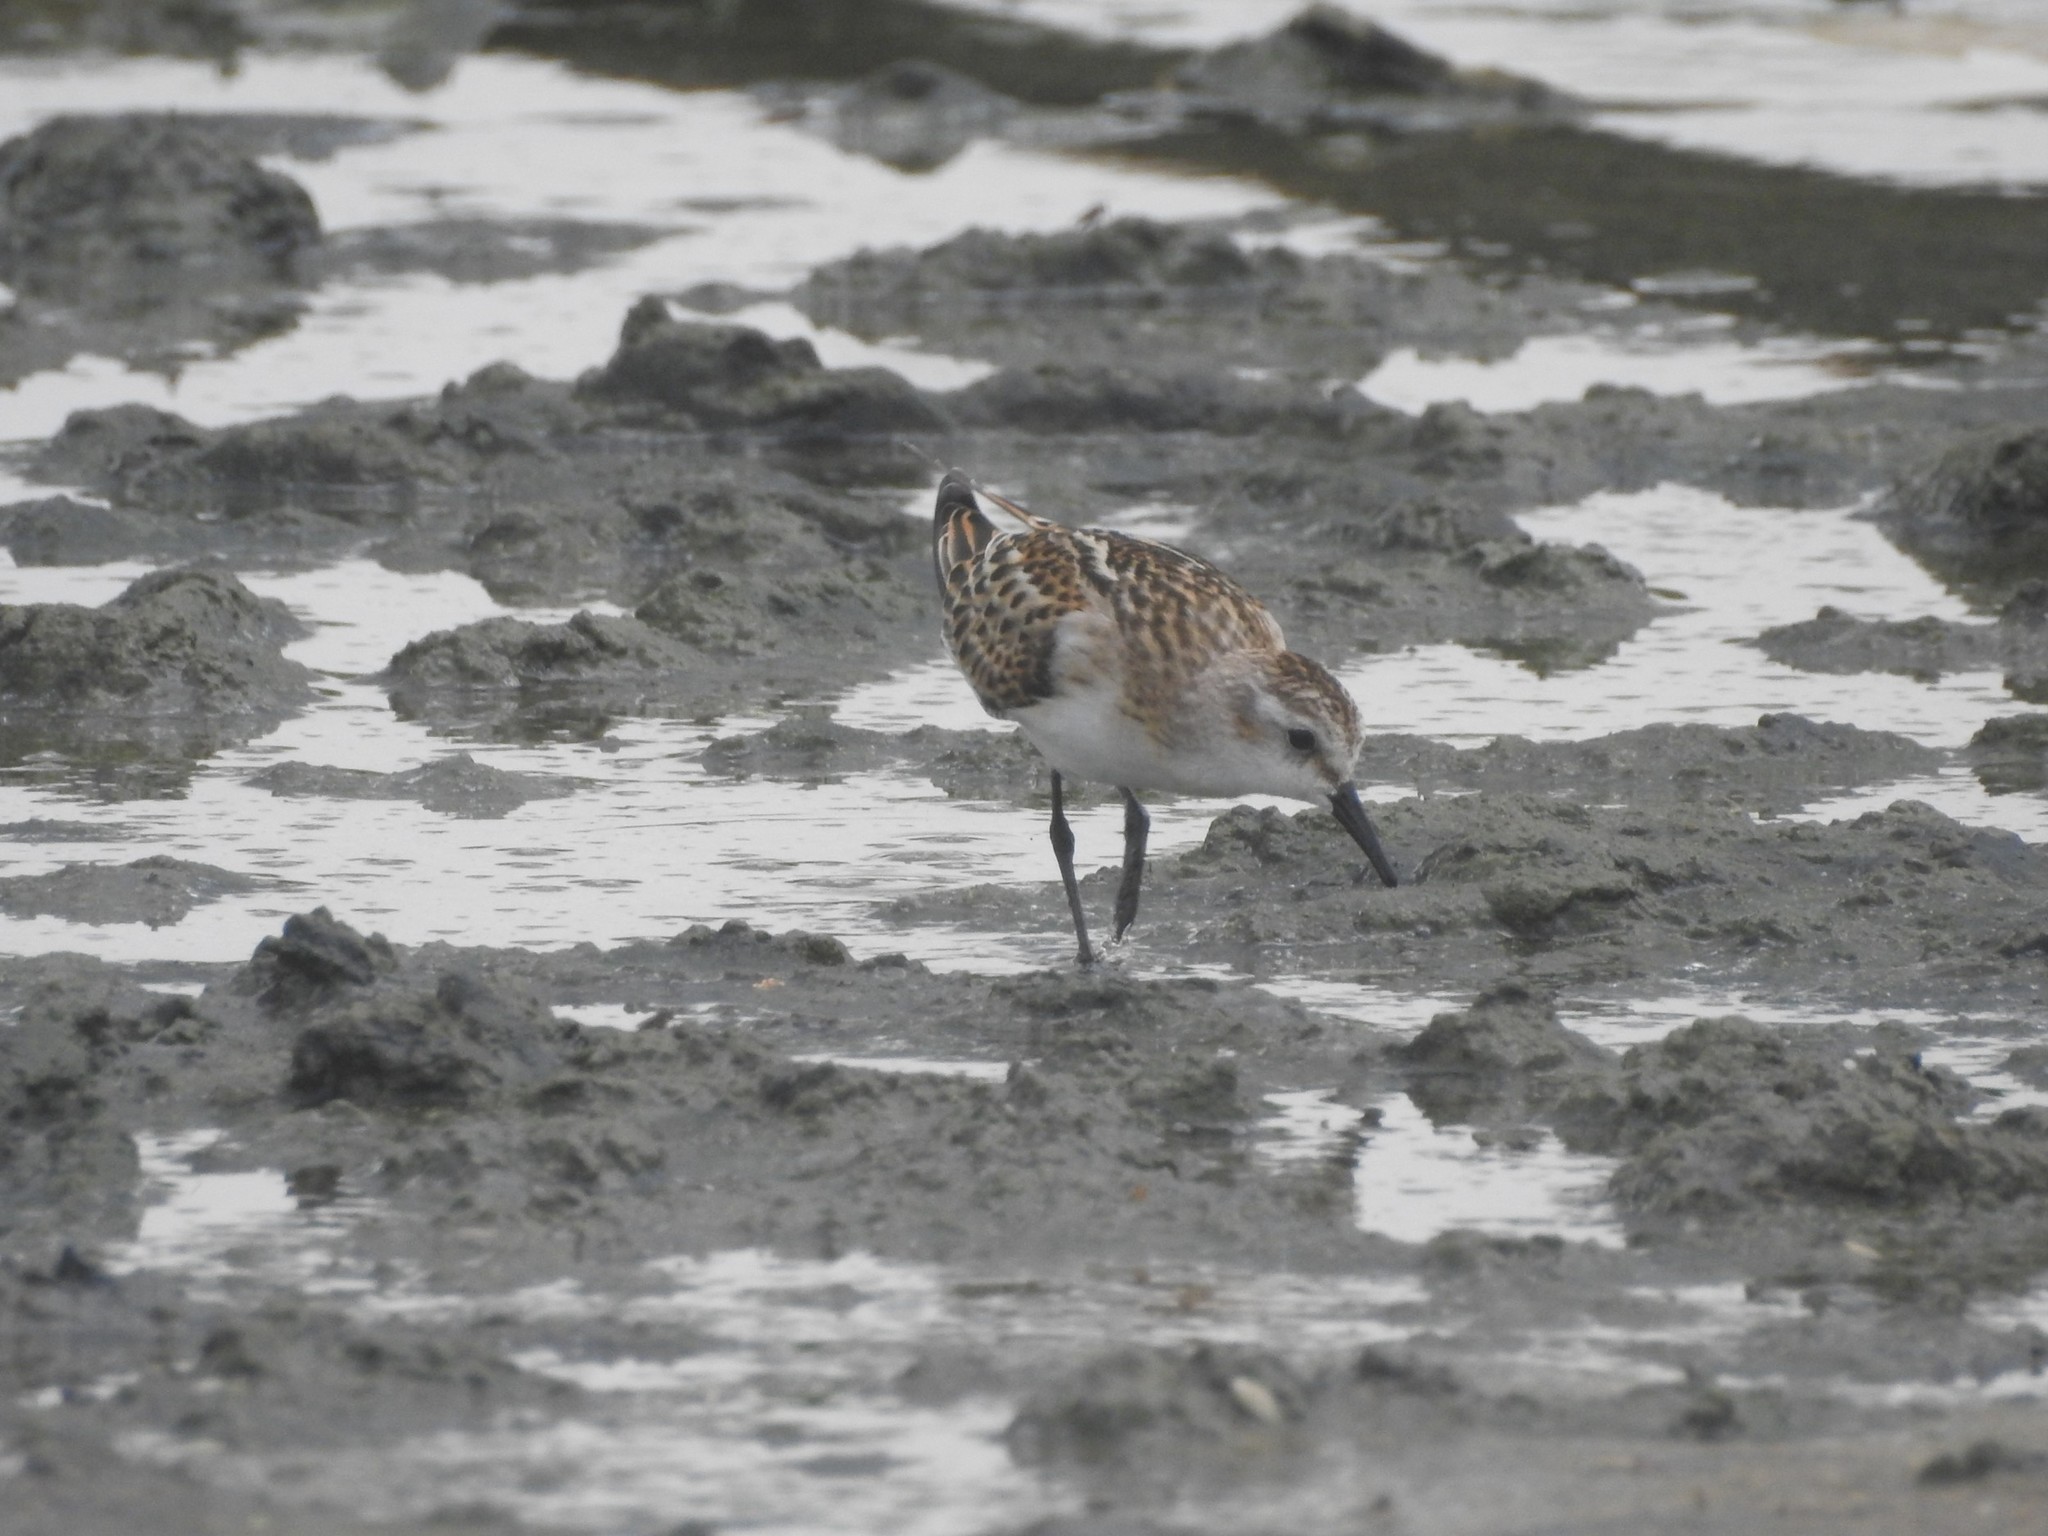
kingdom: Animalia
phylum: Chordata
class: Aves
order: Charadriiformes
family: Scolopacidae
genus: Calidris
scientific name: Calidris minuta
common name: Little stint
